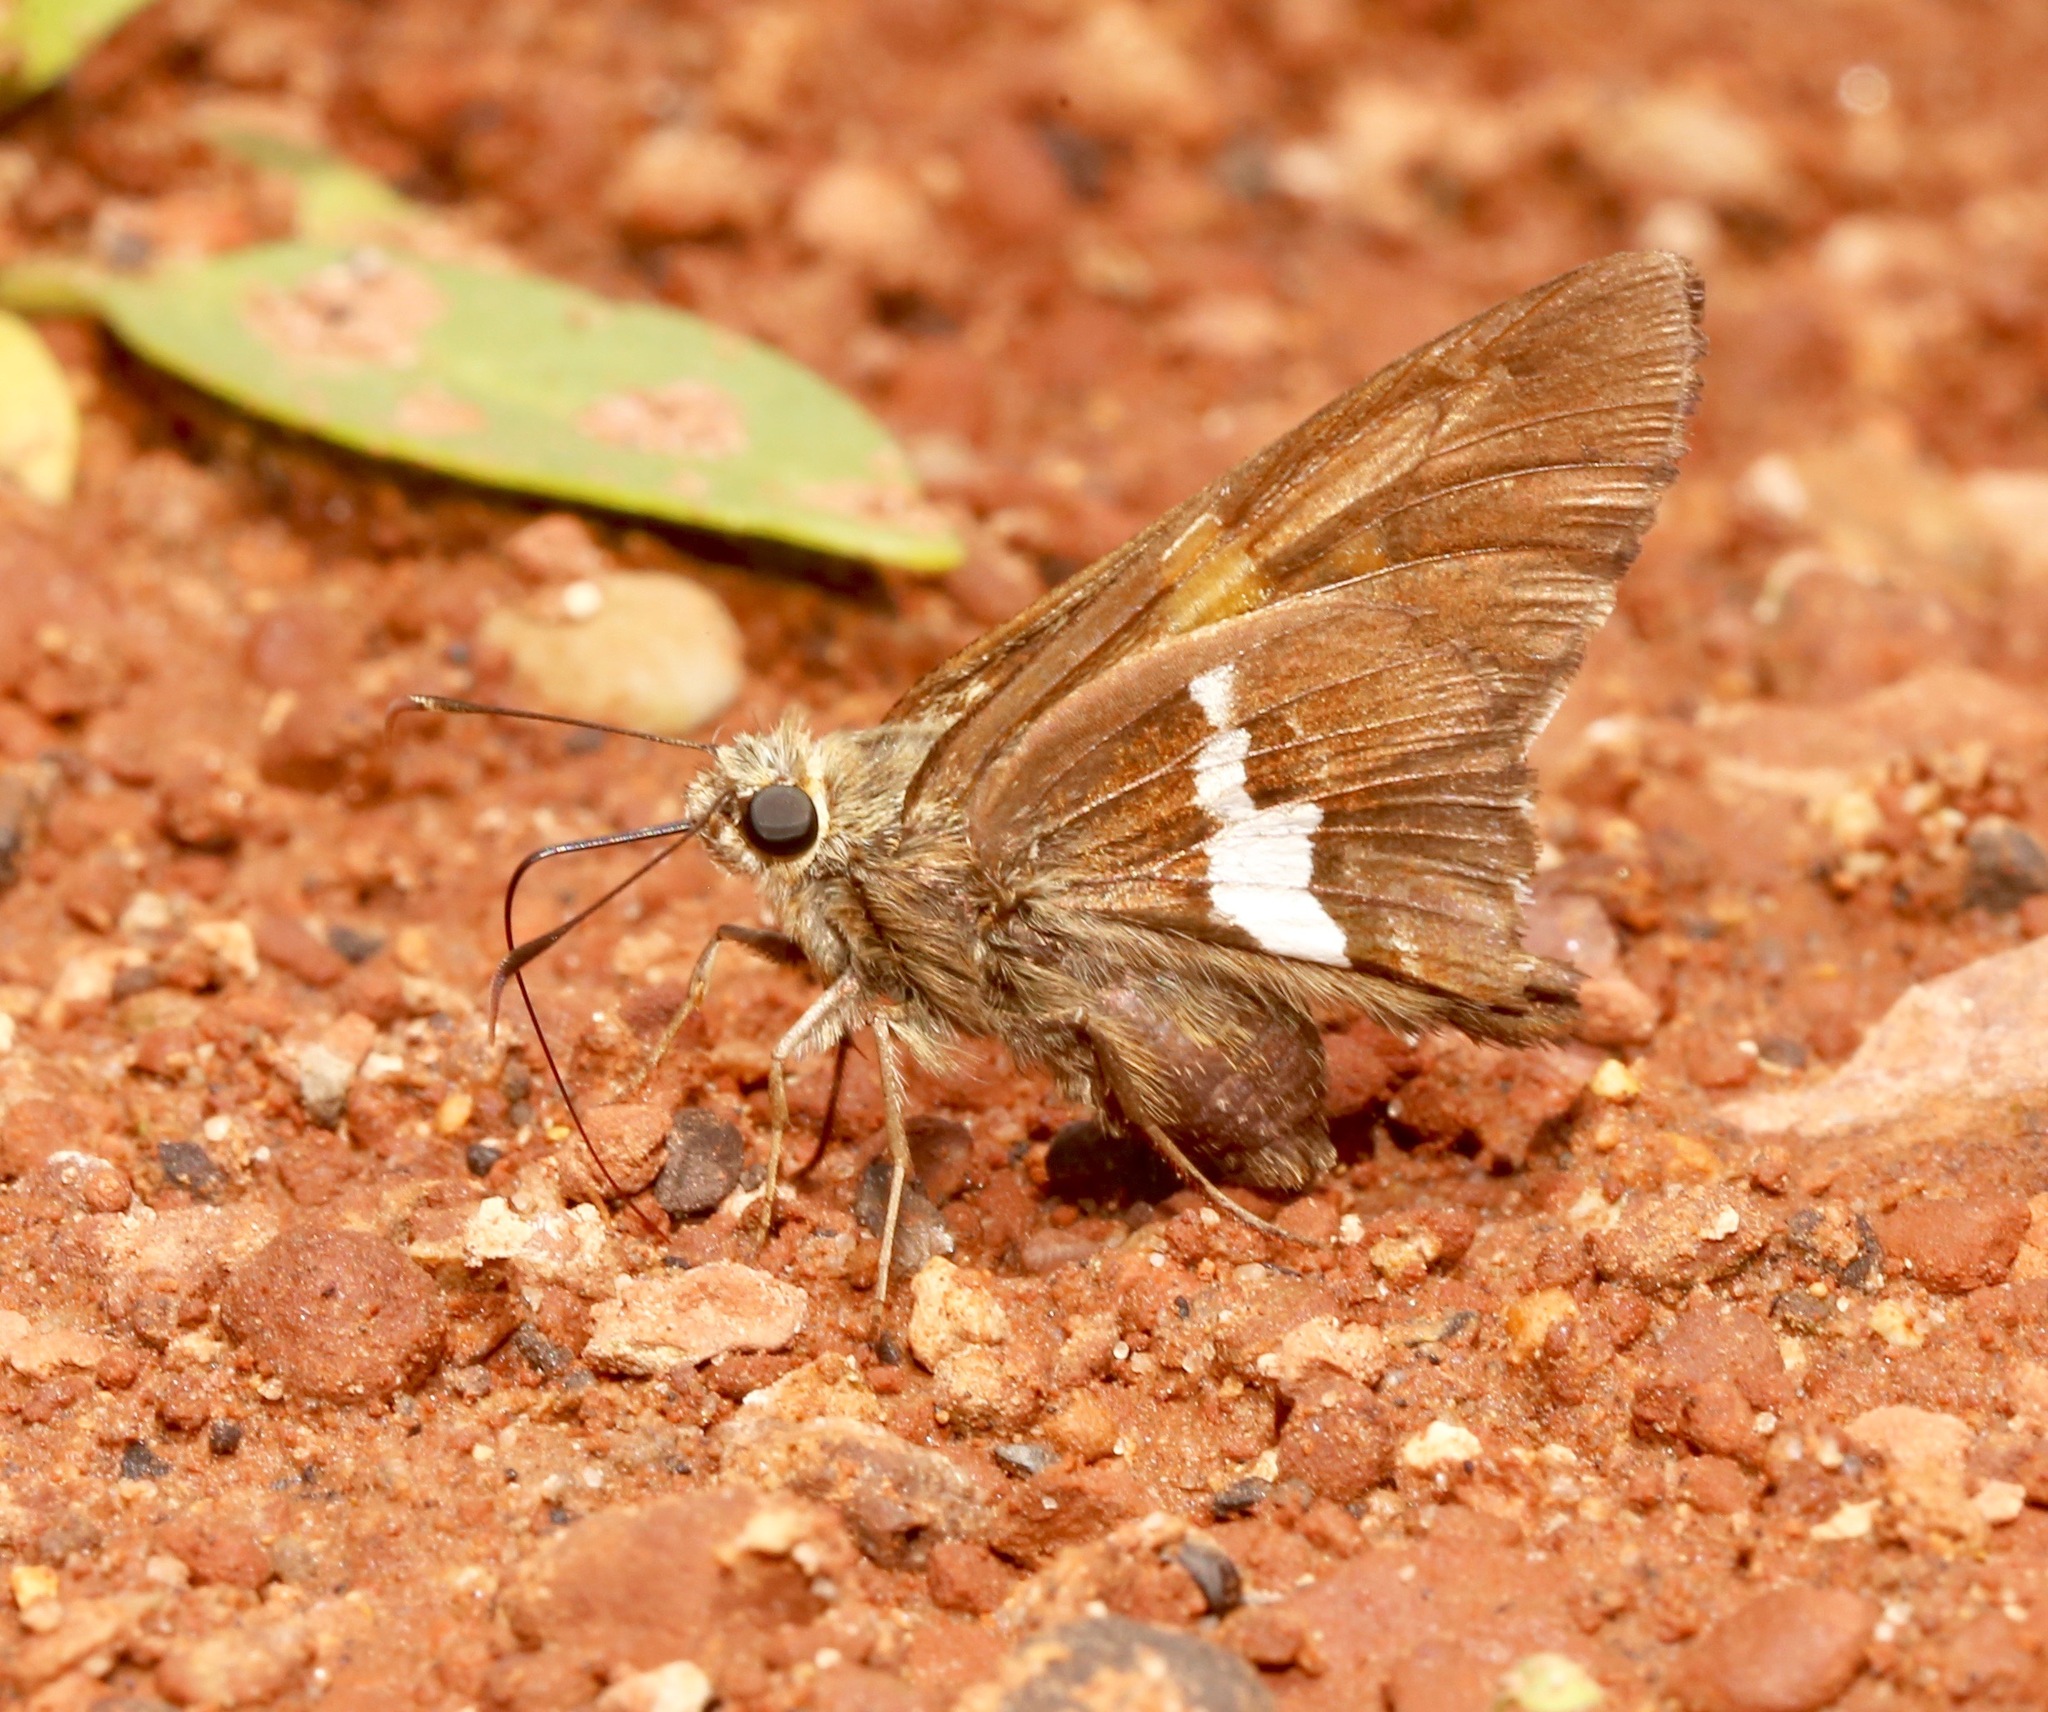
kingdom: Animalia
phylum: Arthropoda
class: Insecta
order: Lepidoptera
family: Hesperiidae
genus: Epargyreus
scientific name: Epargyreus clarus
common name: Silver-spotted skipper
